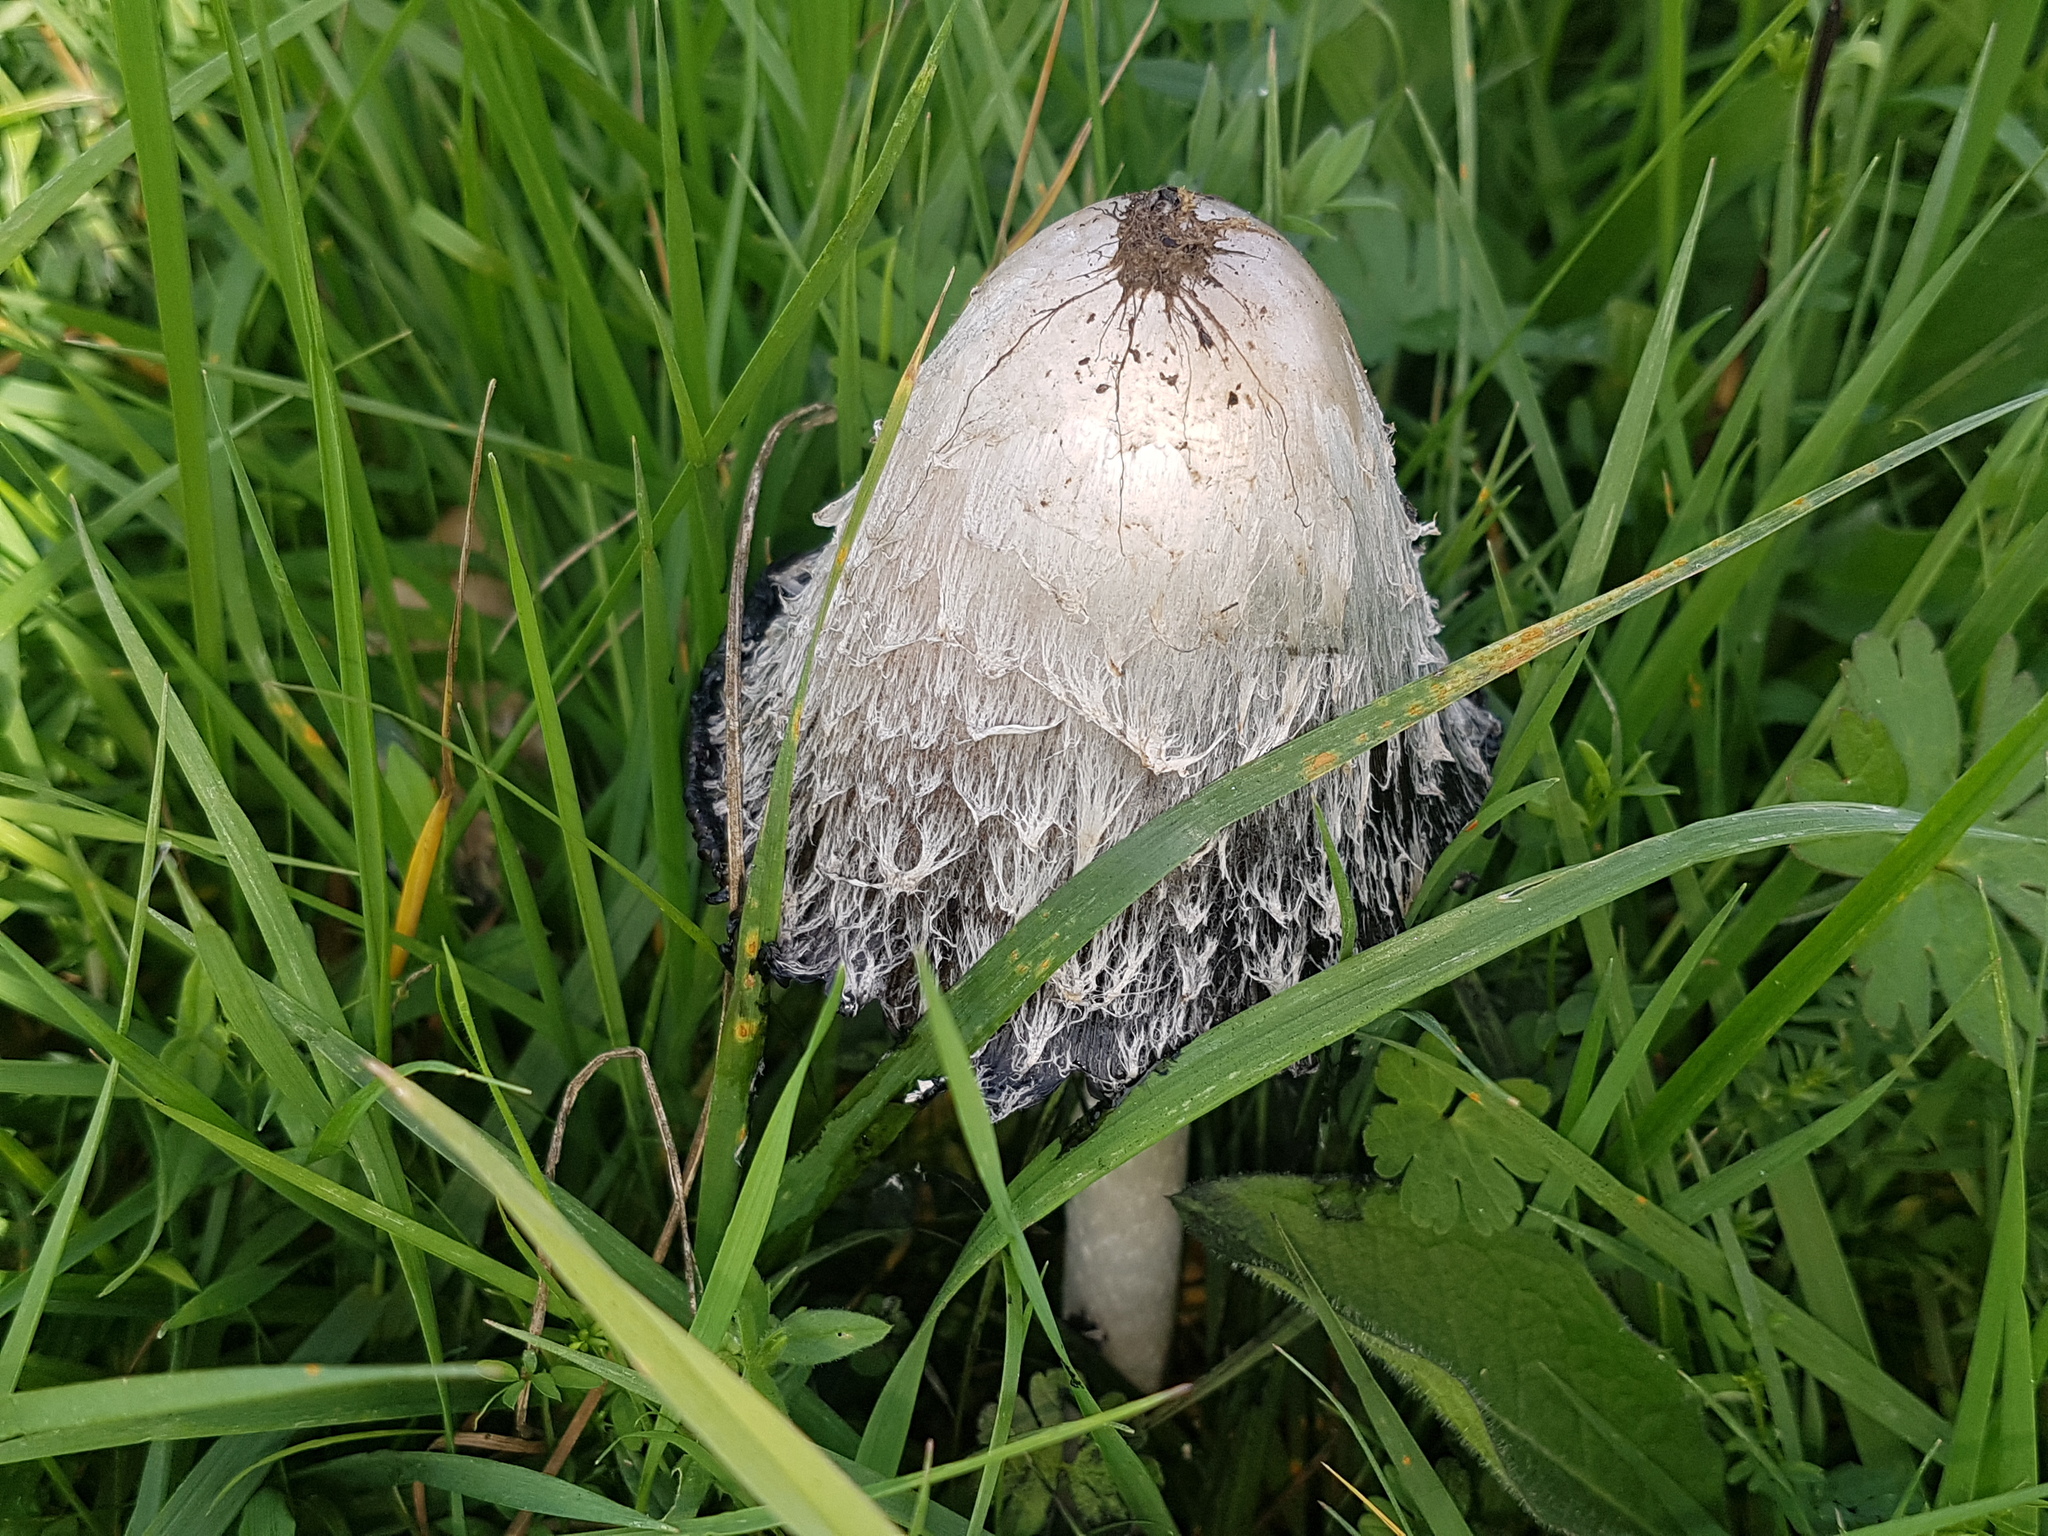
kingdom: Fungi
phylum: Basidiomycota
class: Agaricomycetes
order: Agaricales
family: Agaricaceae
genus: Coprinus
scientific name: Coprinus comatus
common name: Lawyer's wig
